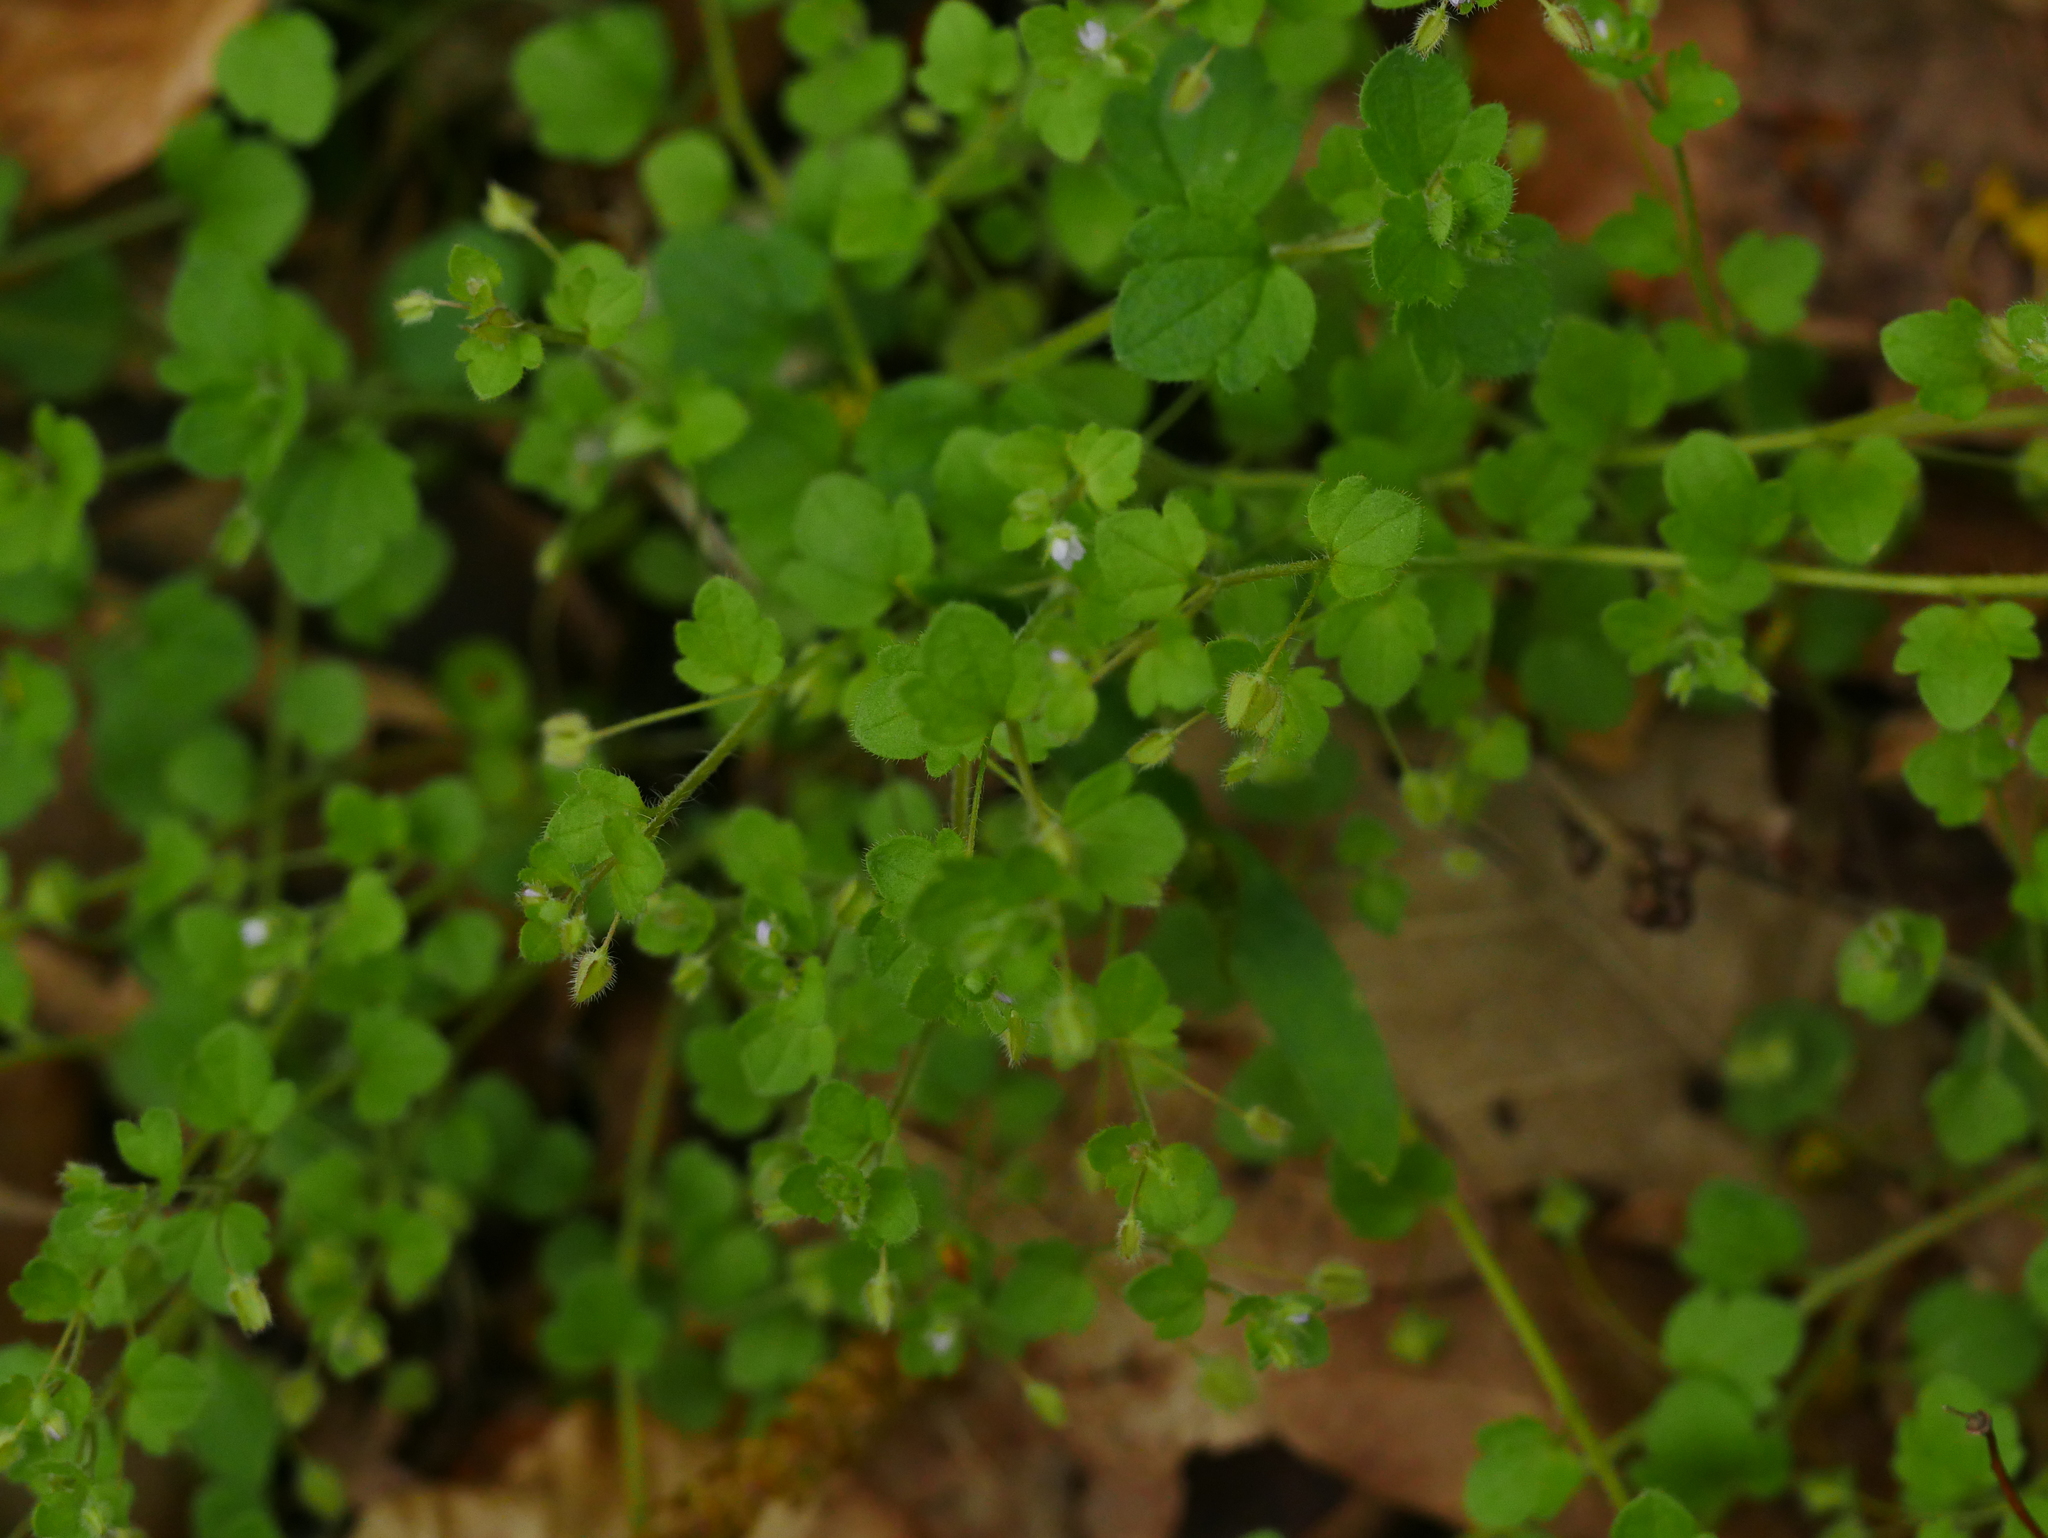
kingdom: Plantae
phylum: Tracheophyta
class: Magnoliopsida
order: Lamiales
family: Plantaginaceae
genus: Veronica
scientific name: Veronica sublobata
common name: False ivy-leaved speedwell
